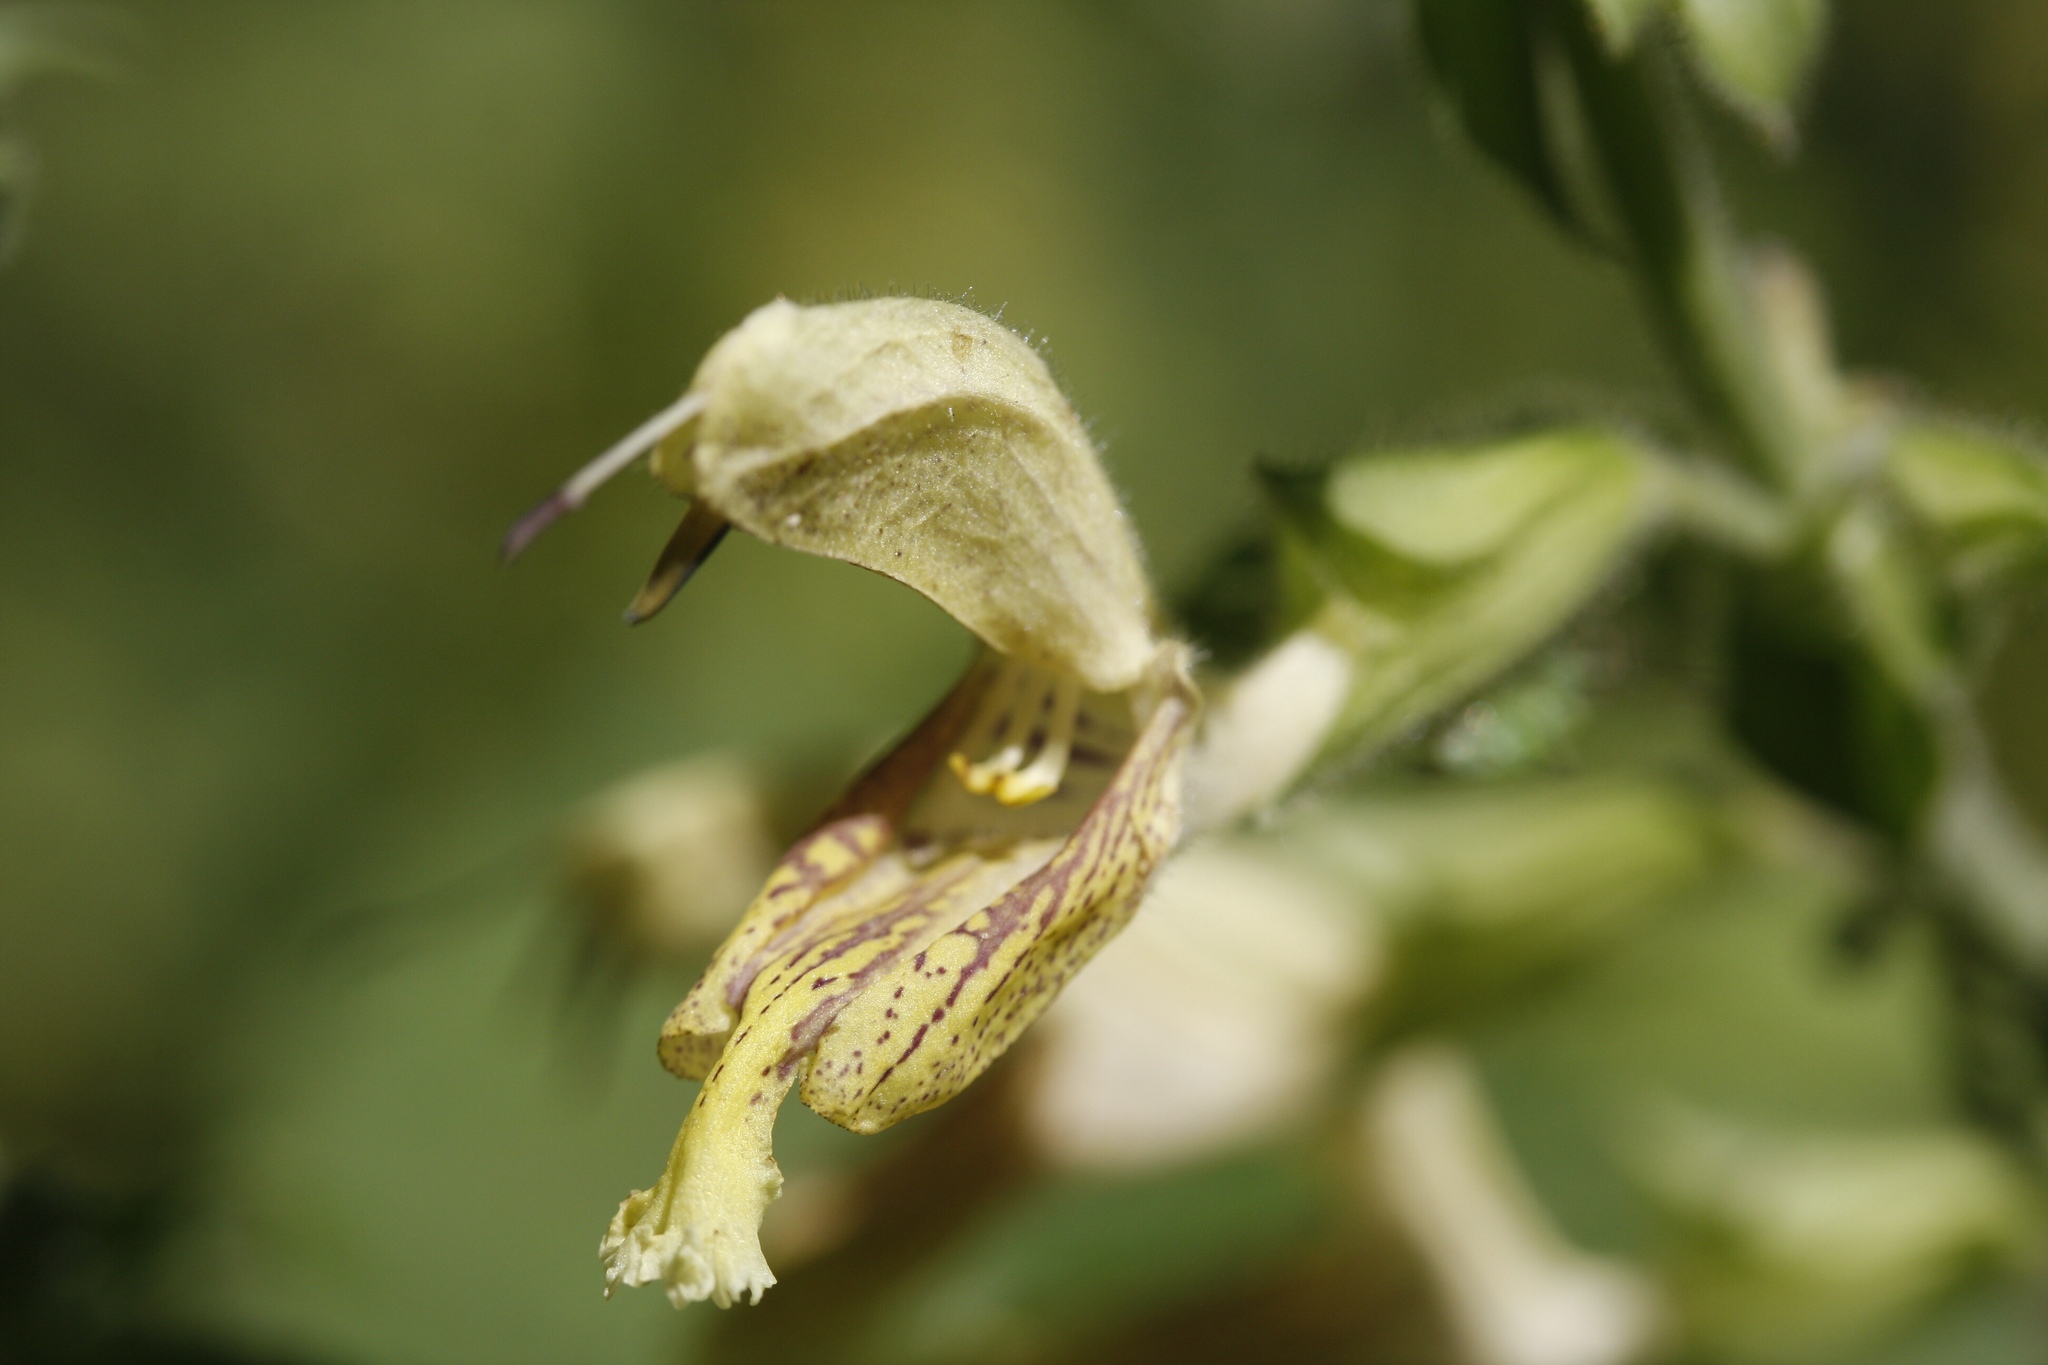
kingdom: Plantae
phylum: Tracheophyta
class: Magnoliopsida
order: Lamiales
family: Lamiaceae
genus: Salvia
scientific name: Salvia glutinosa
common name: Sticky clary
